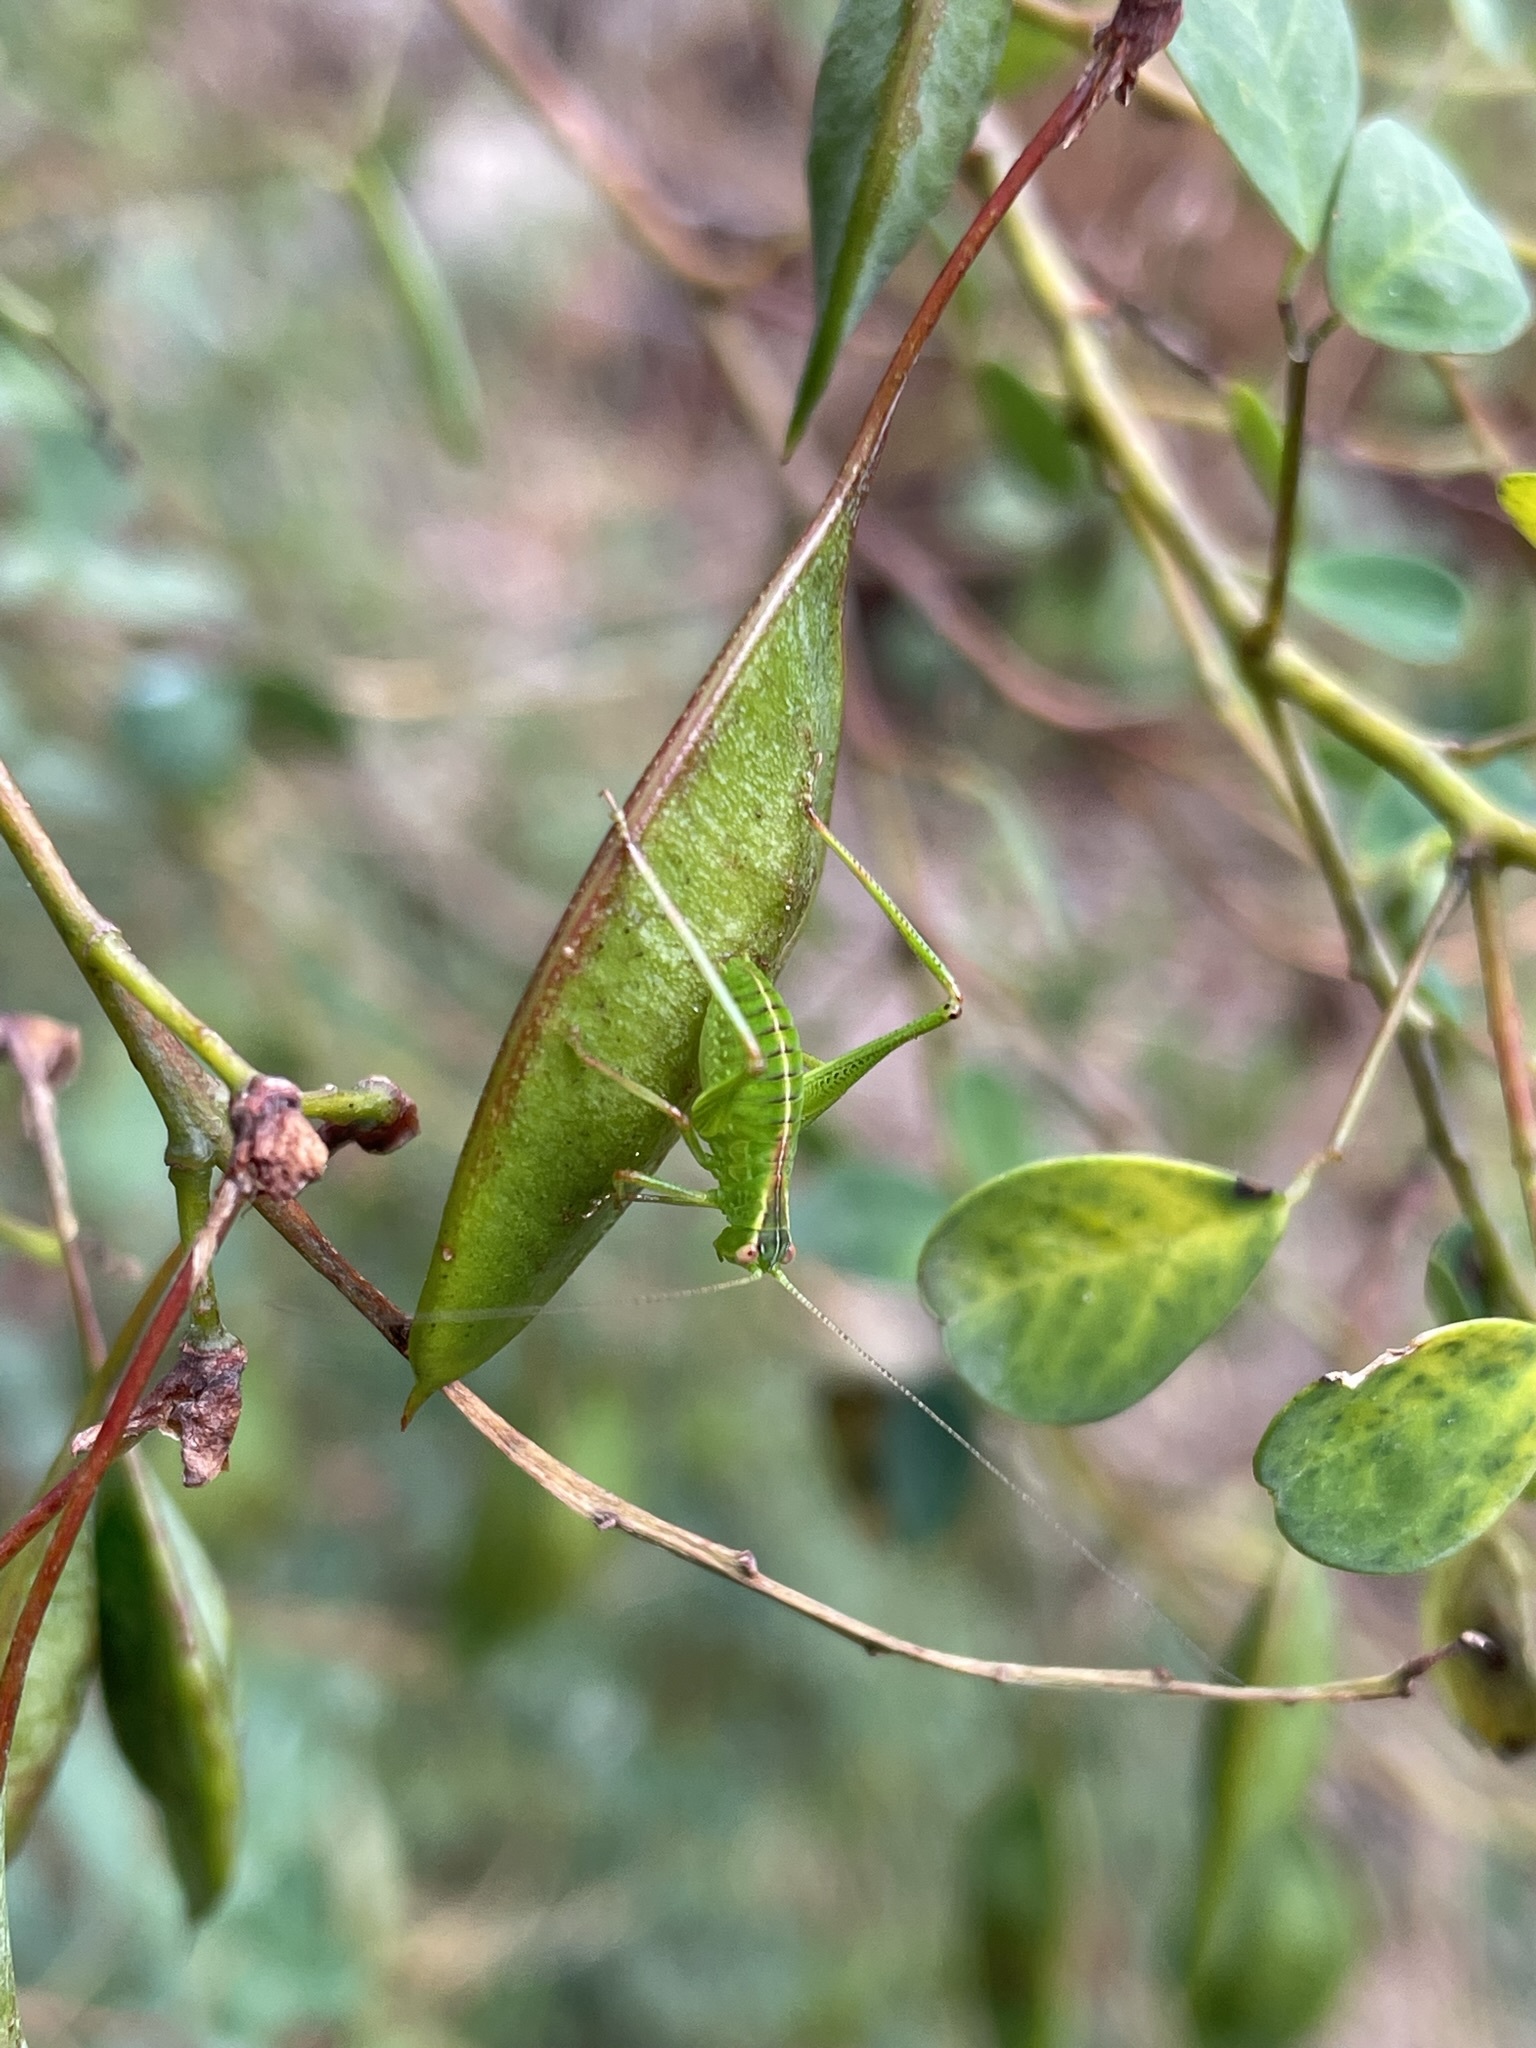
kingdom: Plantae
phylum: Tracheophyta
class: Magnoliopsida
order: Fabales
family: Fabaceae
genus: Goodia
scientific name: Goodia lotifolia
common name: Cloverleaf-poison
